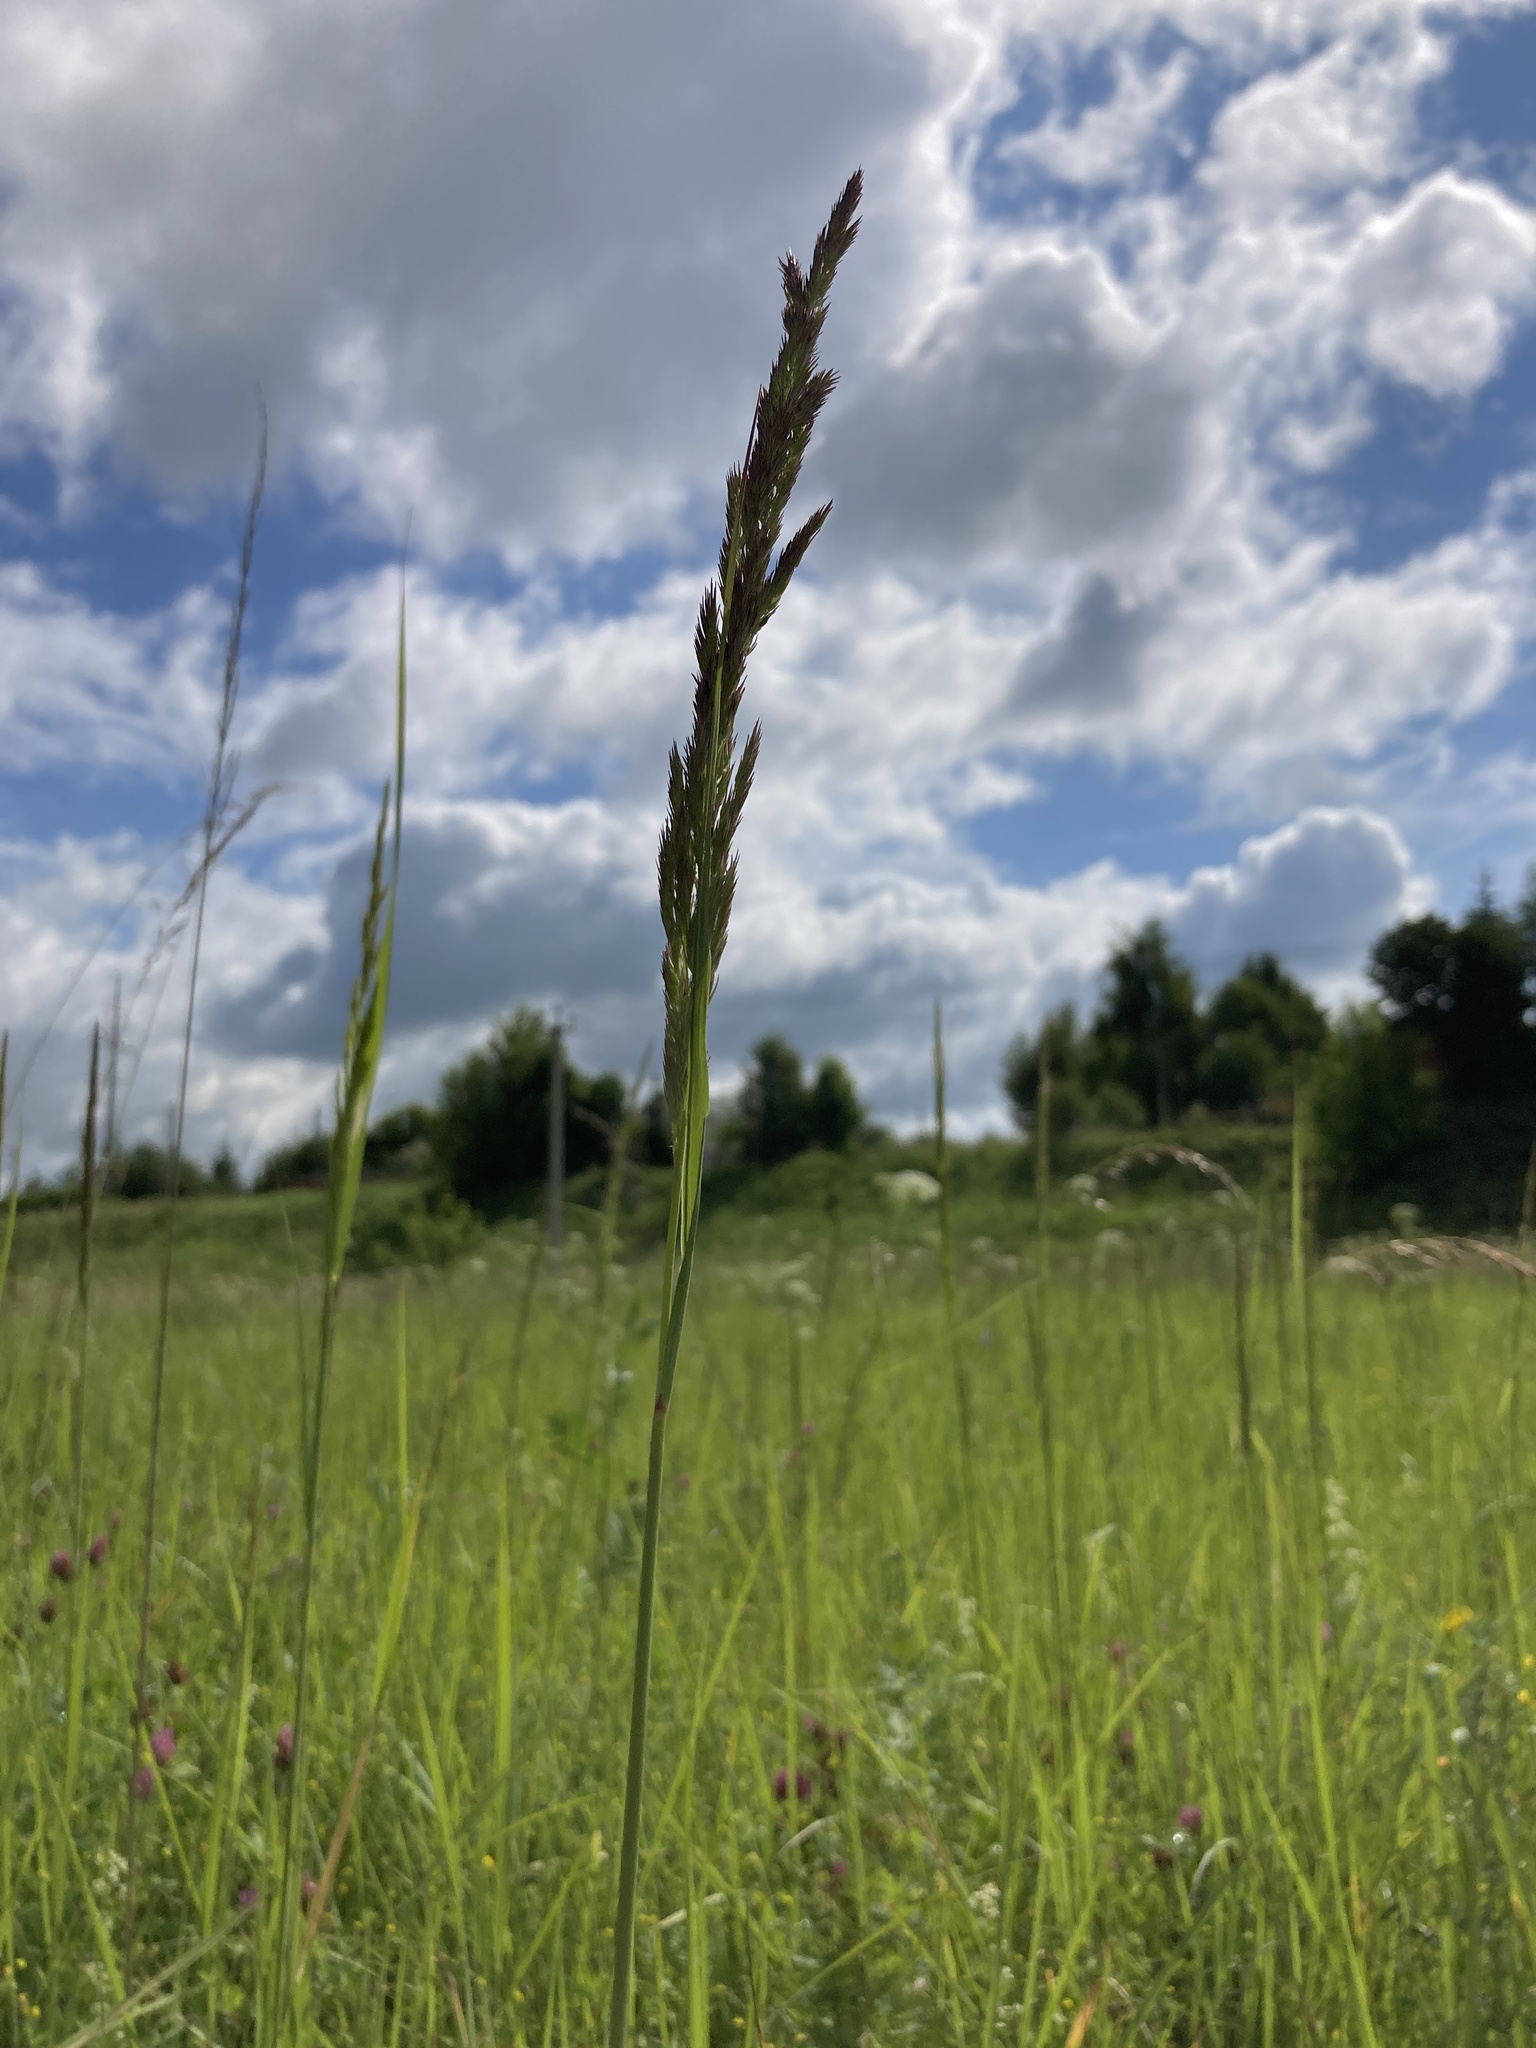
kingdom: Plantae
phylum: Tracheophyta
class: Liliopsida
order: Poales
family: Poaceae
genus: Calamagrostis
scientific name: Calamagrostis epigejos
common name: Wood small-reed
